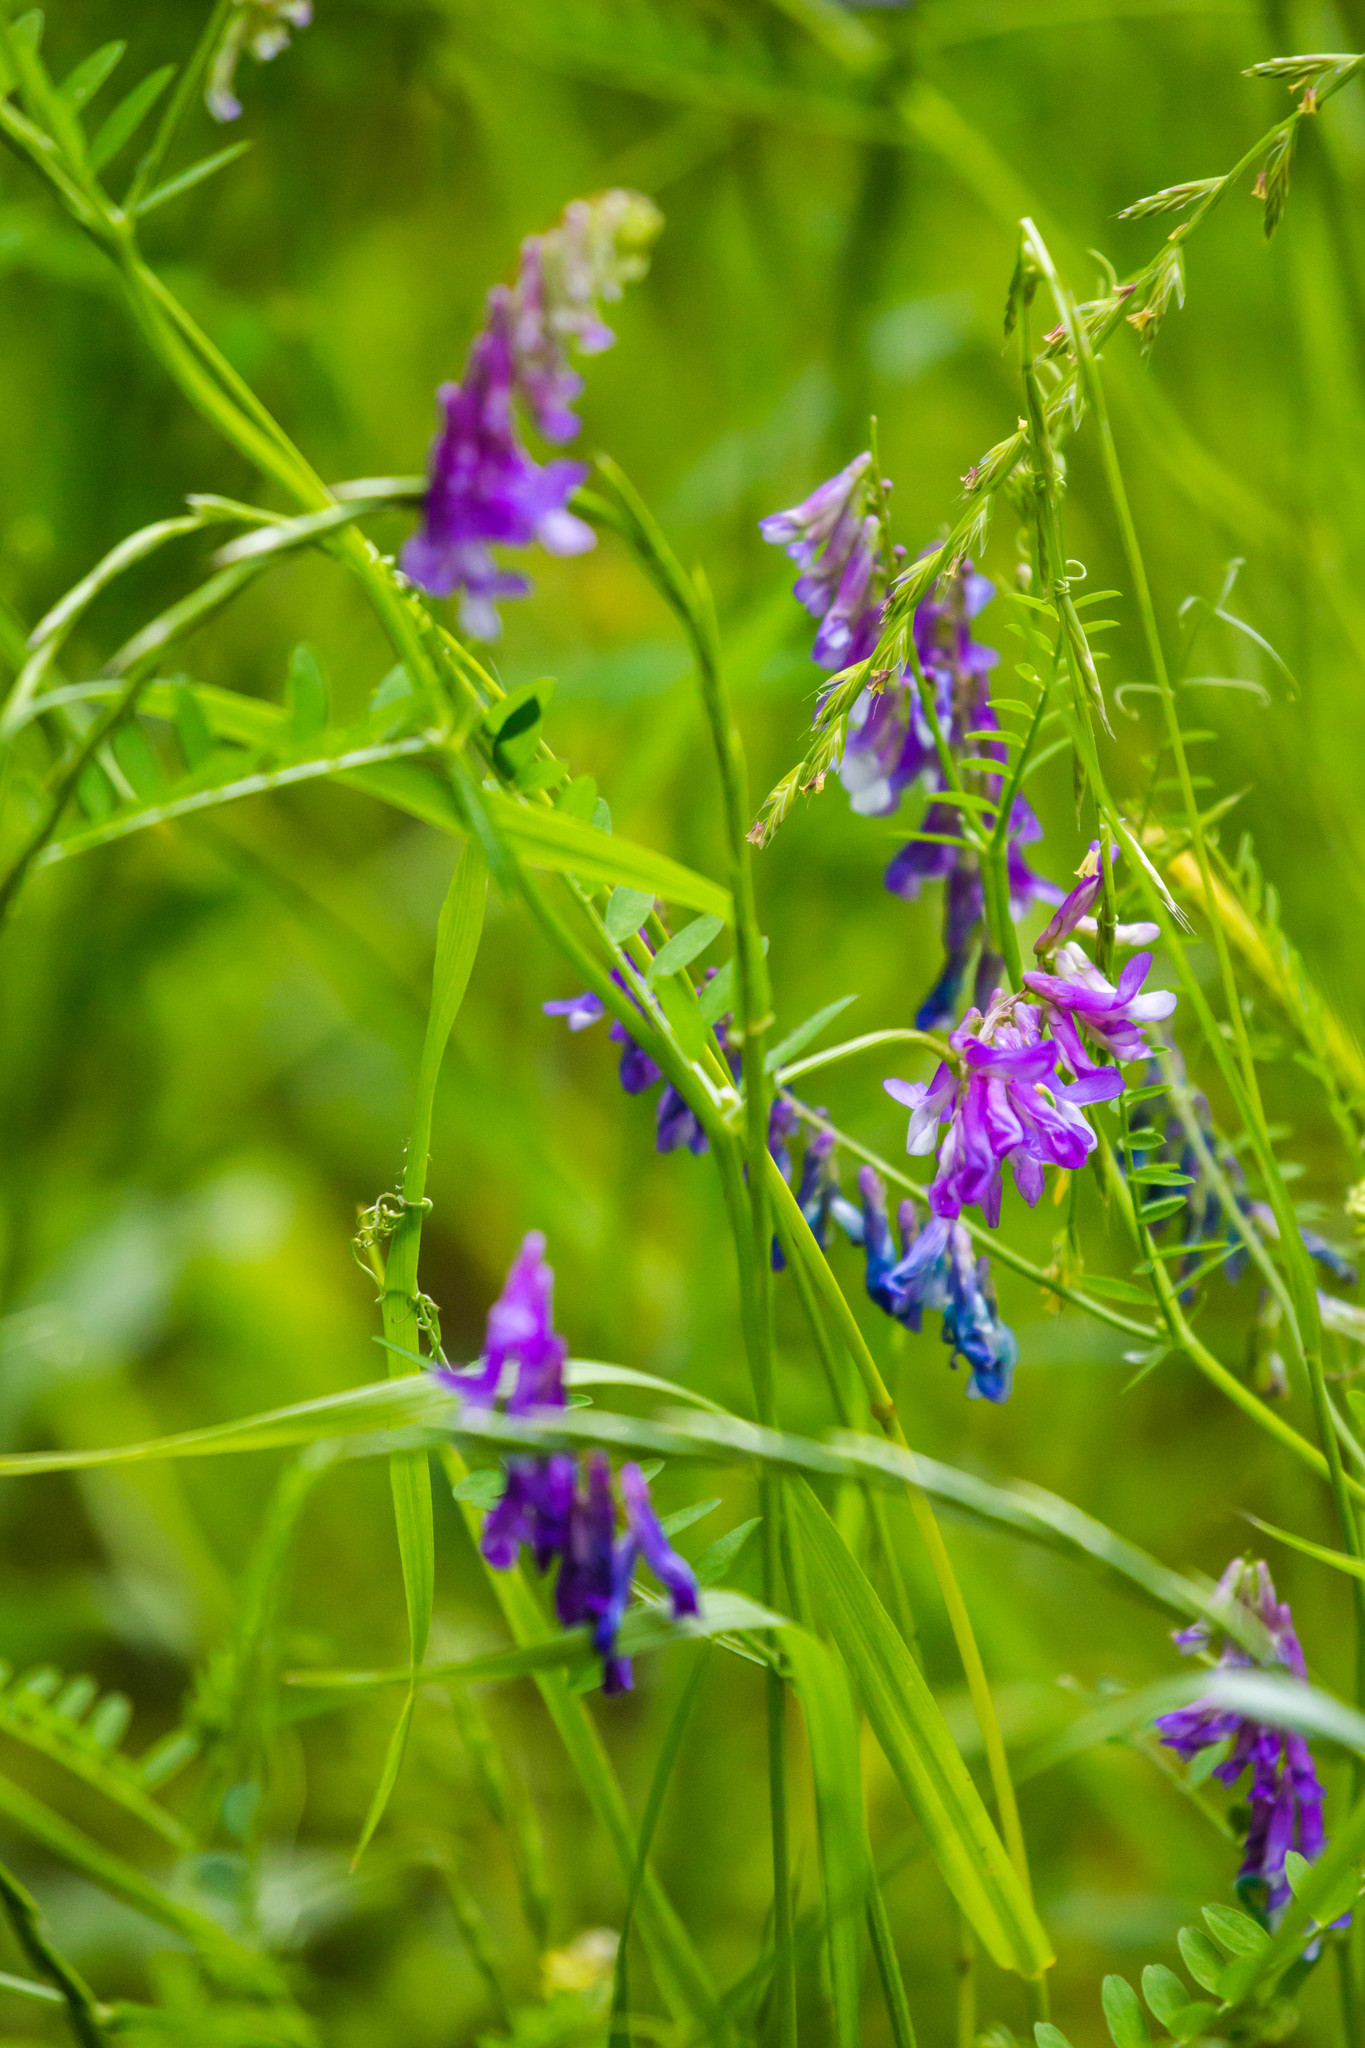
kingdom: Plantae
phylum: Tracheophyta
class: Magnoliopsida
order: Fabales
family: Fabaceae
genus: Vicia
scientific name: Vicia villosa
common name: Fodder vetch
